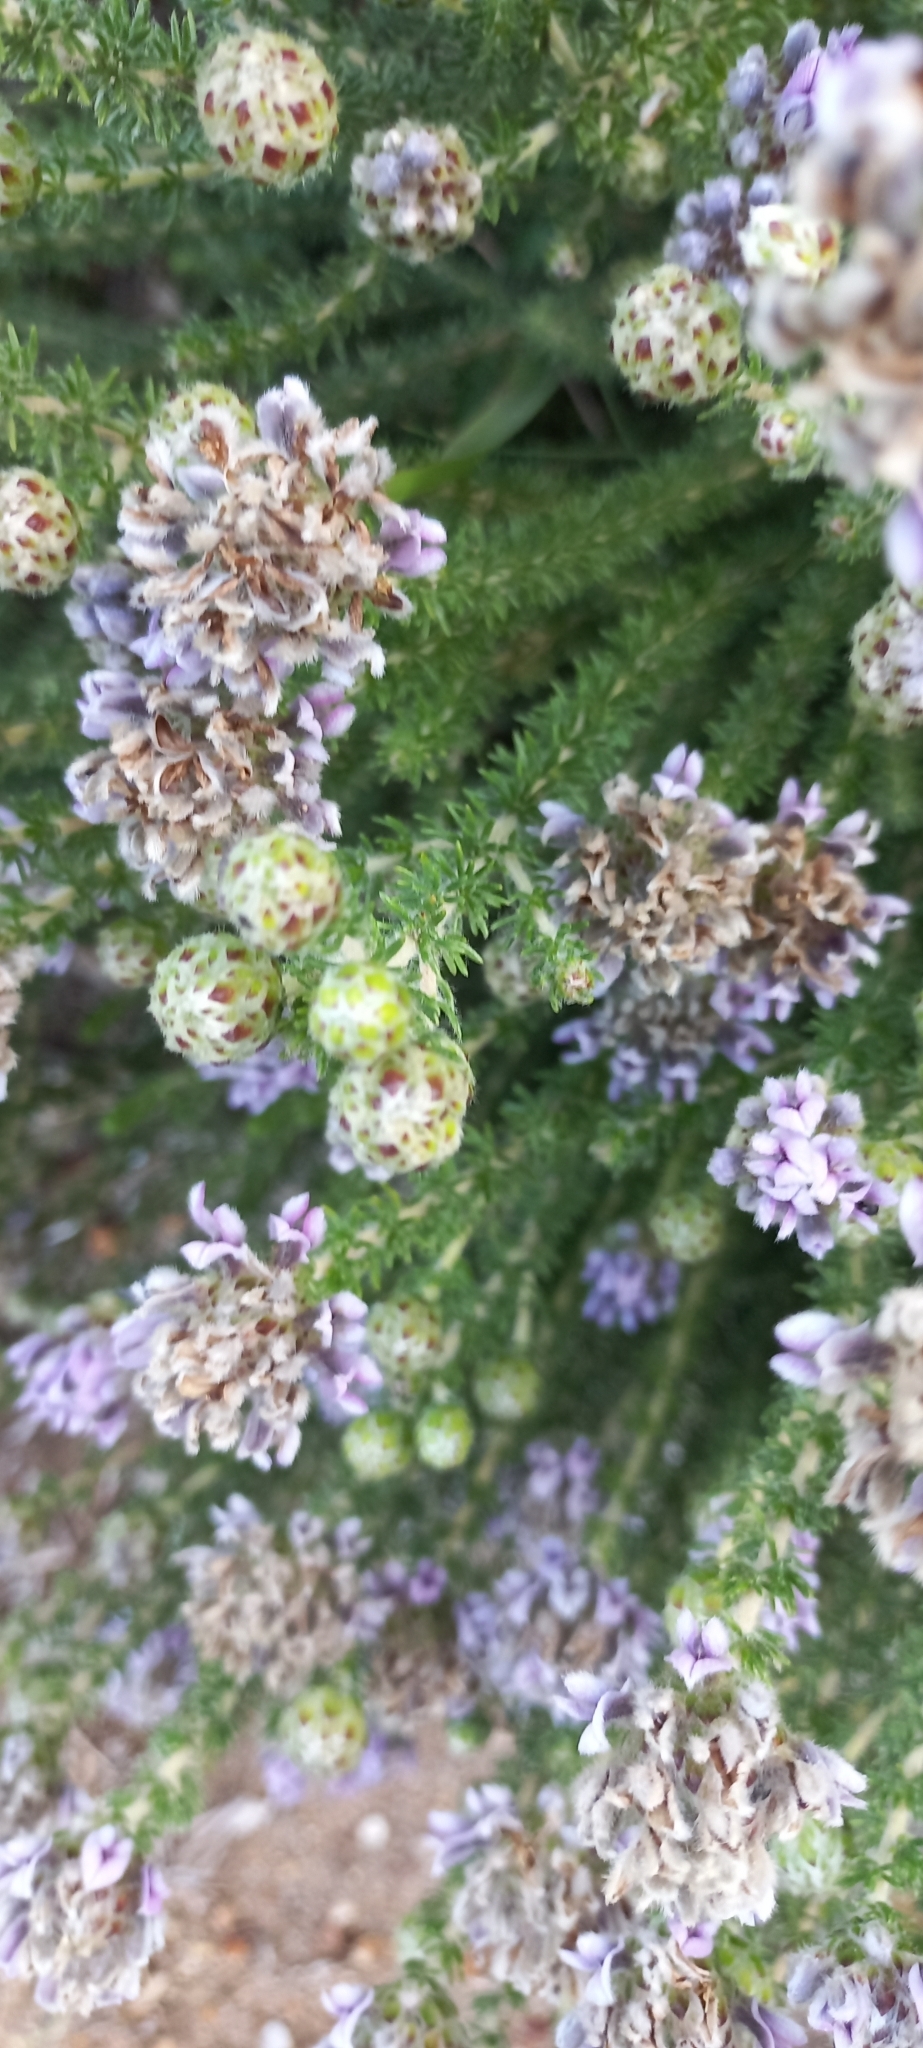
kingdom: Plantae
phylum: Tracheophyta
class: Magnoliopsida
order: Fabales
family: Fabaceae
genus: Aspalathus
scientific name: Aspalathus globulosa
